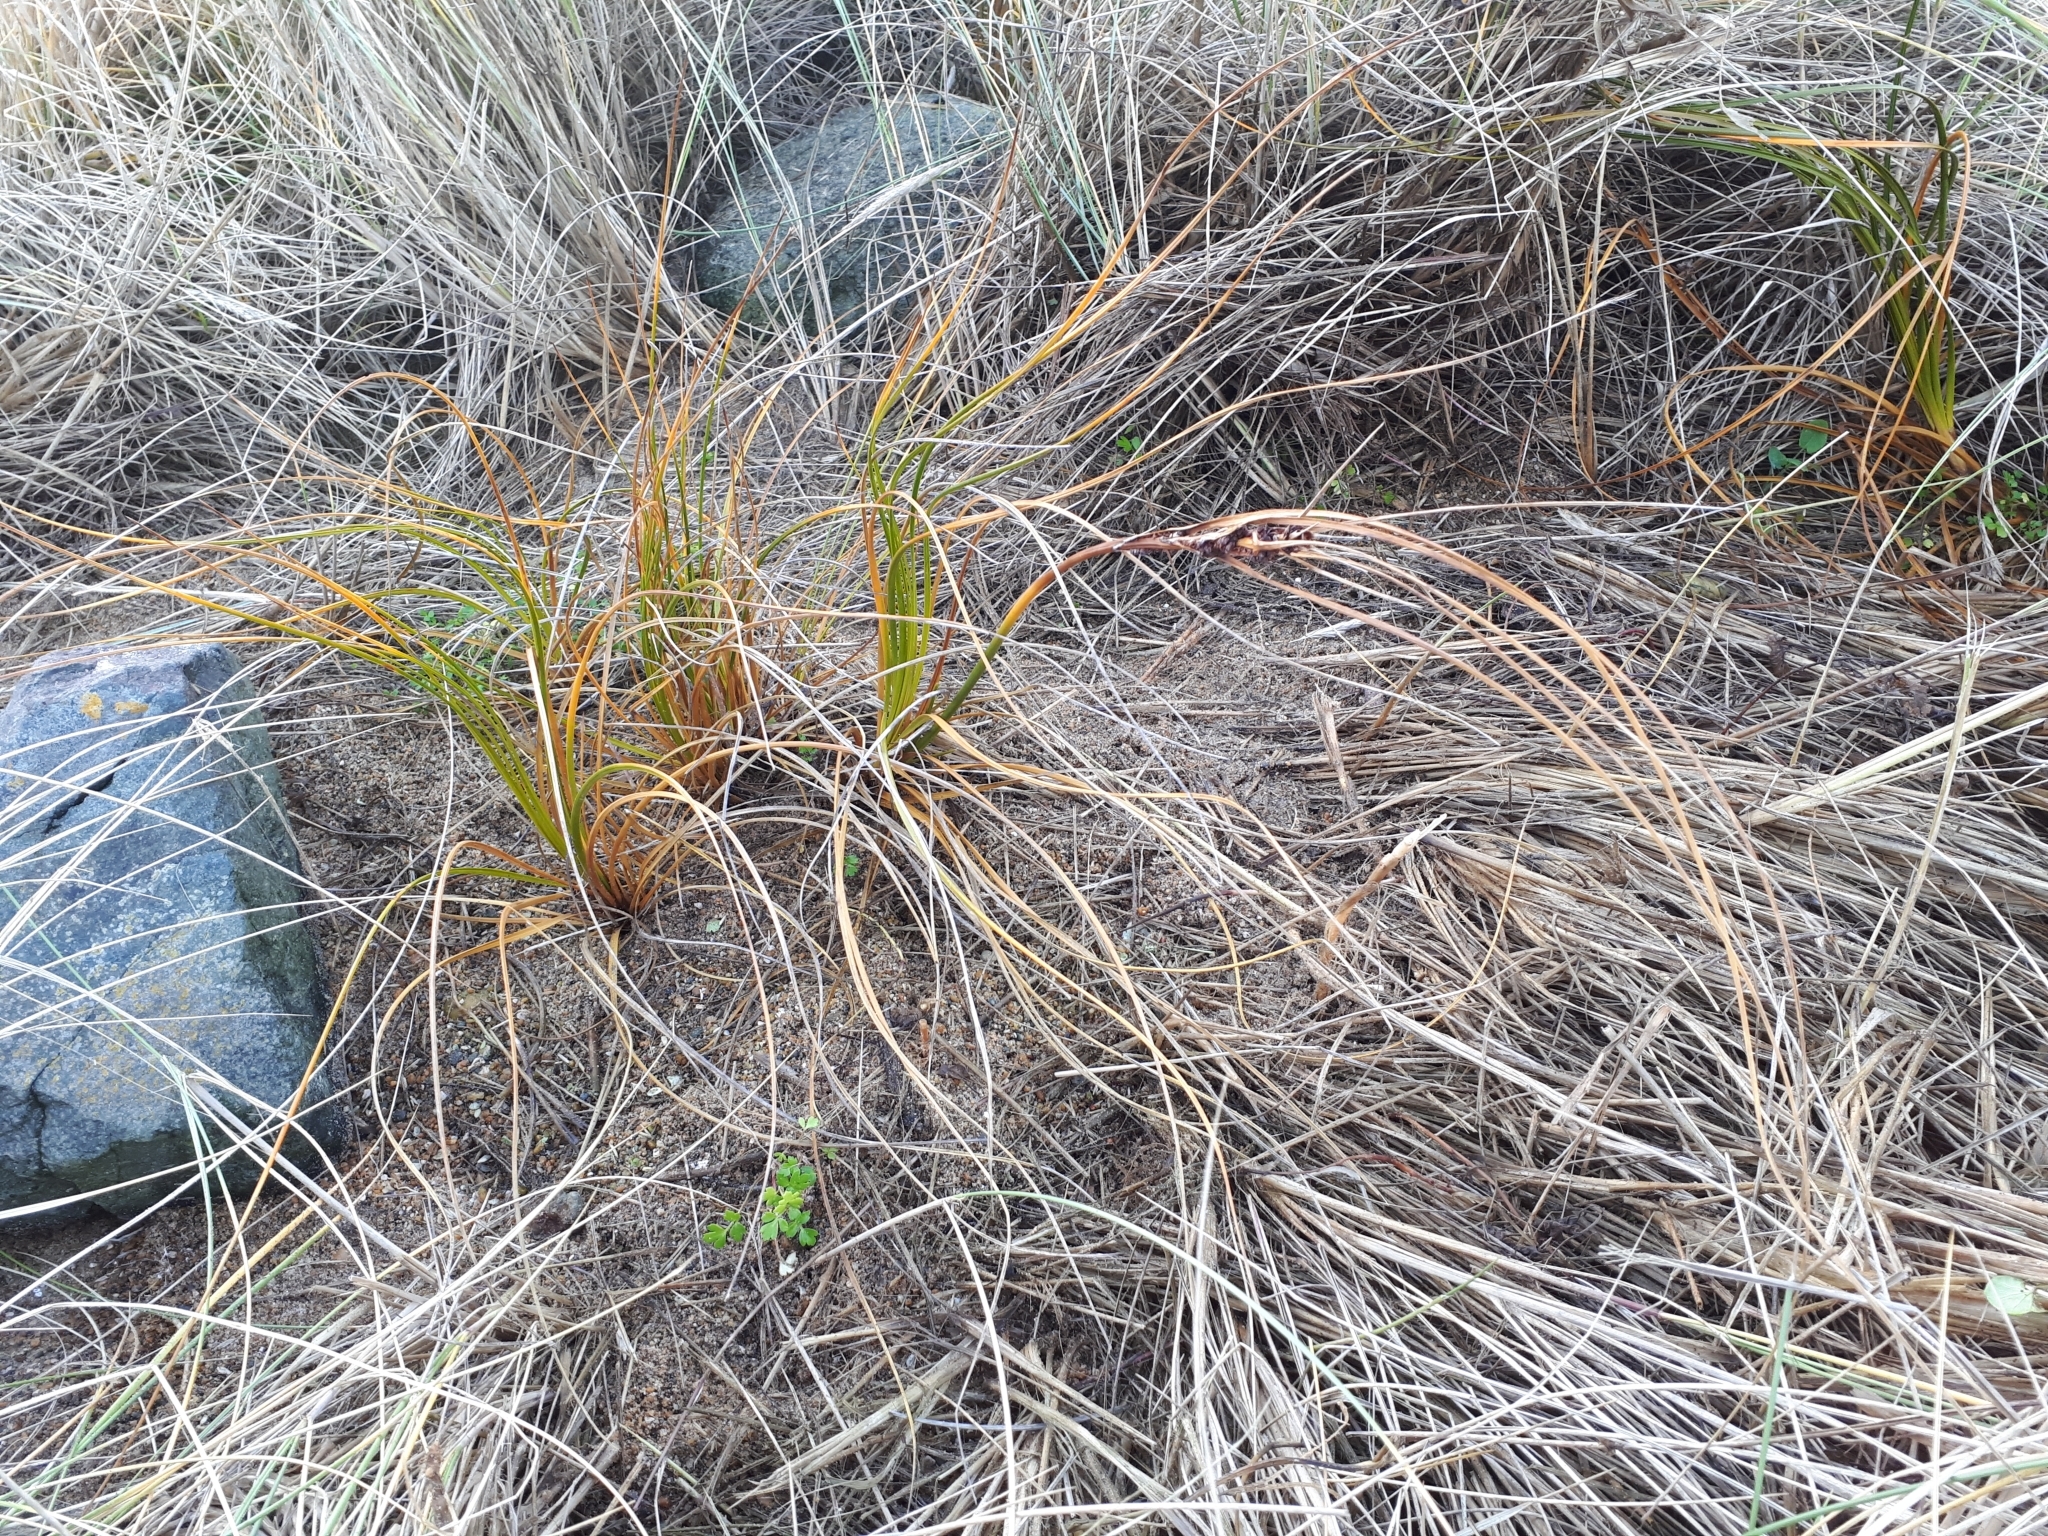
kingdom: Plantae
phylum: Tracheophyta
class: Liliopsida
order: Poales
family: Cyperaceae
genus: Ficinia
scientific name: Ficinia spiralis
